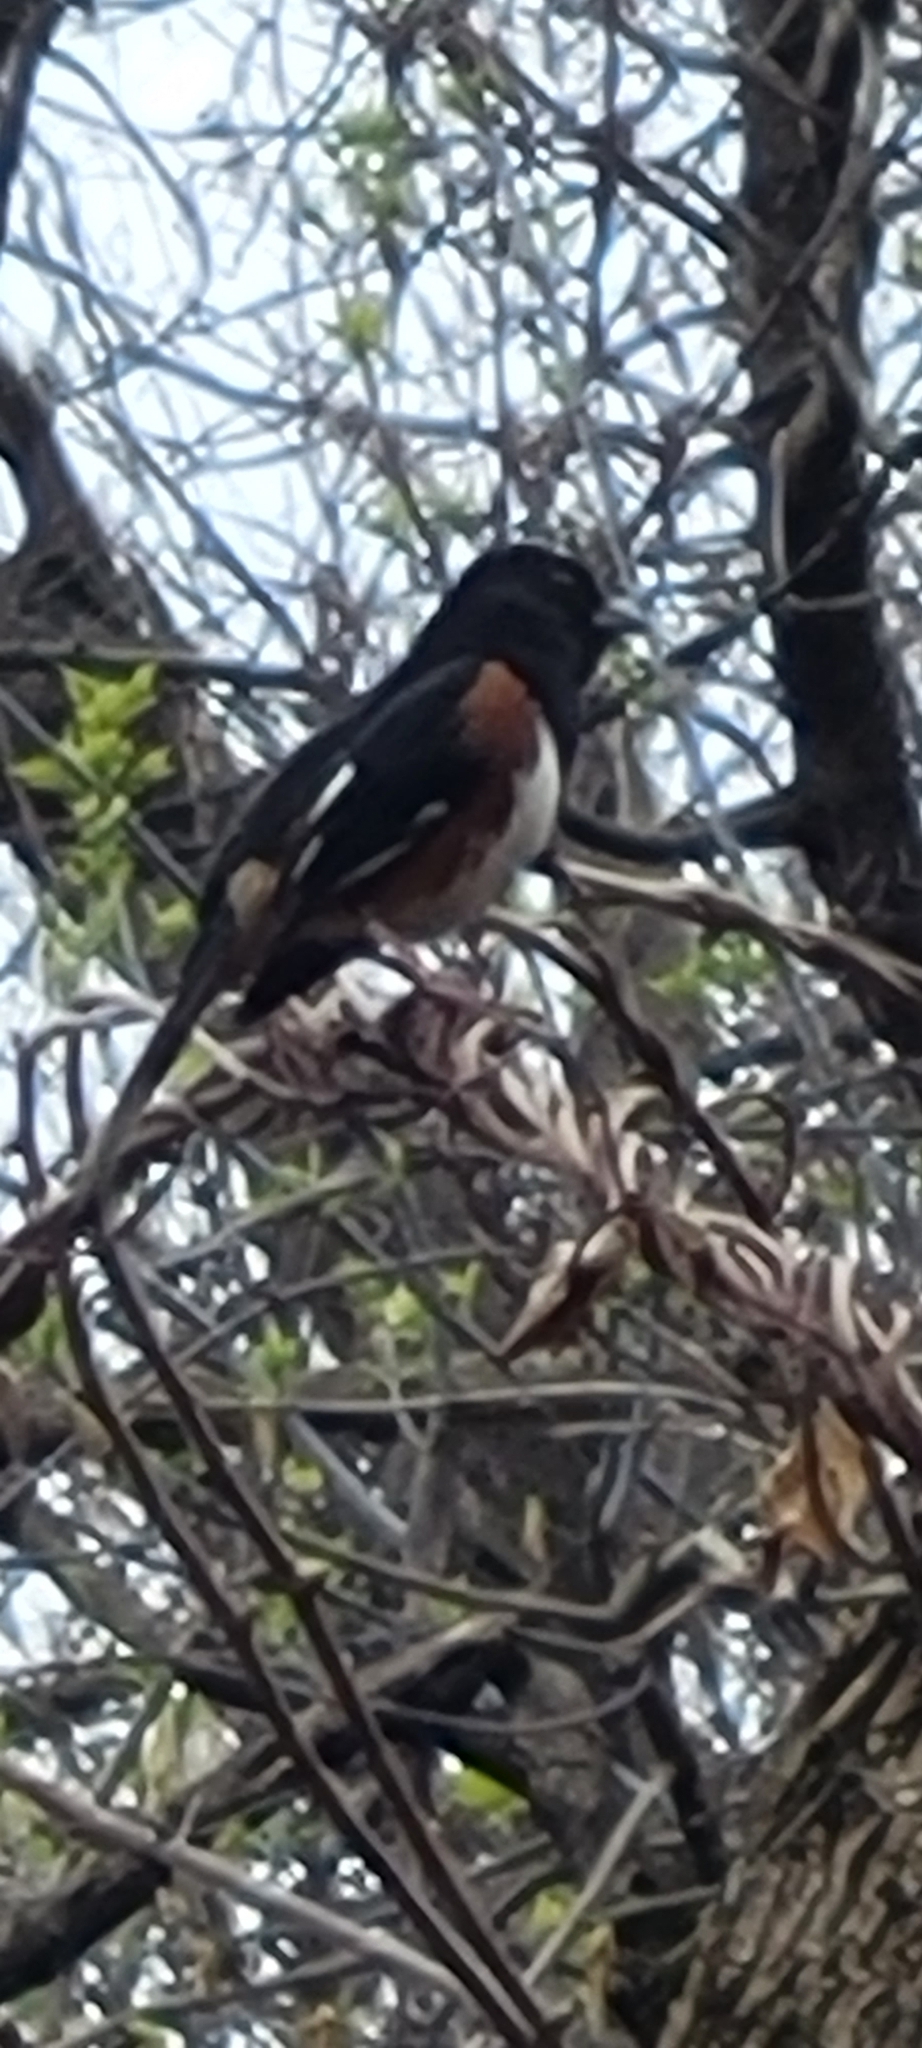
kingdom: Animalia
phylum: Chordata
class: Aves
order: Passeriformes
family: Passerellidae
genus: Pipilo
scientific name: Pipilo erythrophthalmus
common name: Eastern towhee
